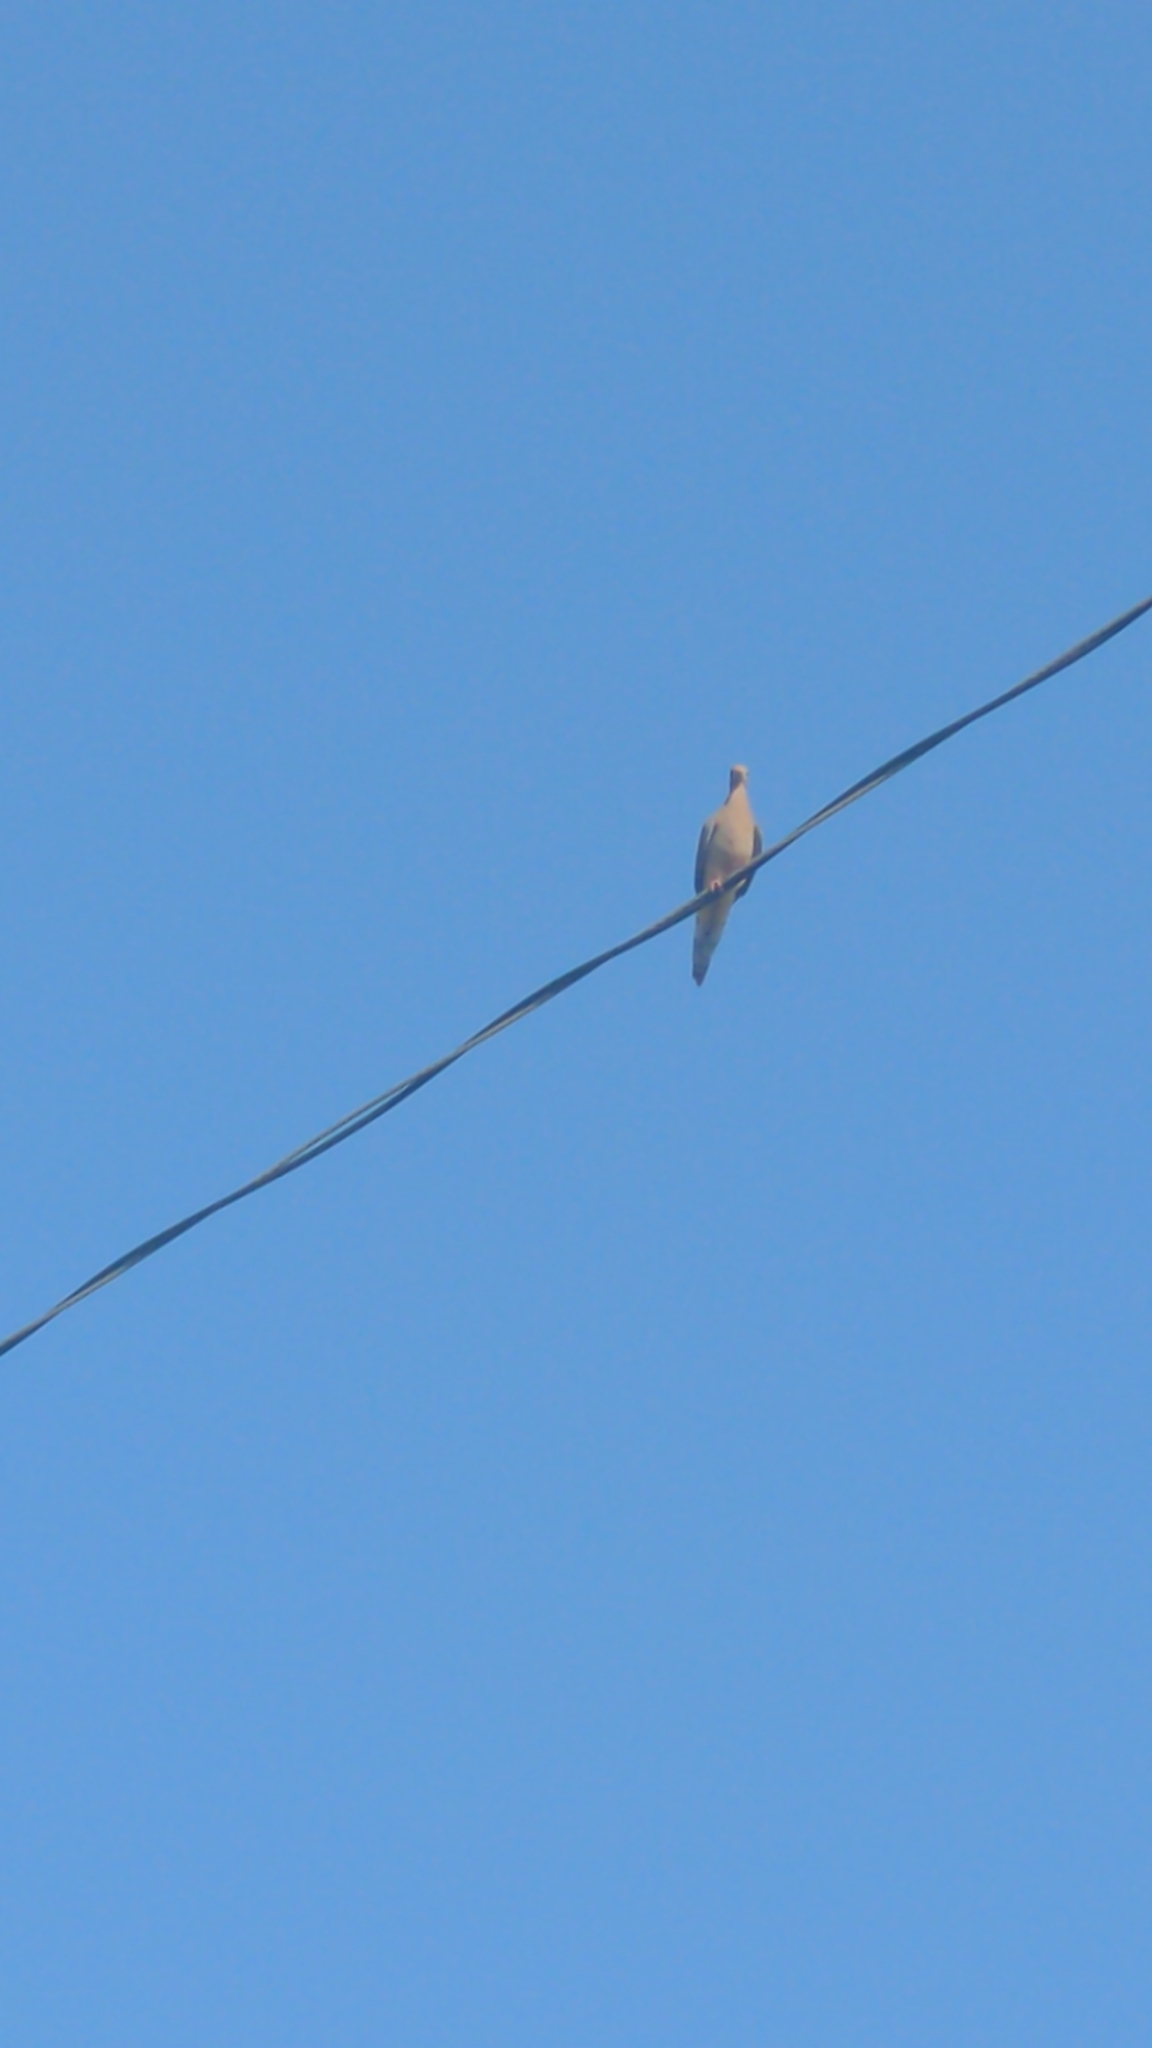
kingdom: Animalia
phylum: Chordata
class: Aves
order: Columbiformes
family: Columbidae
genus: Zenaida
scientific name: Zenaida macroura
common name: Mourning dove
